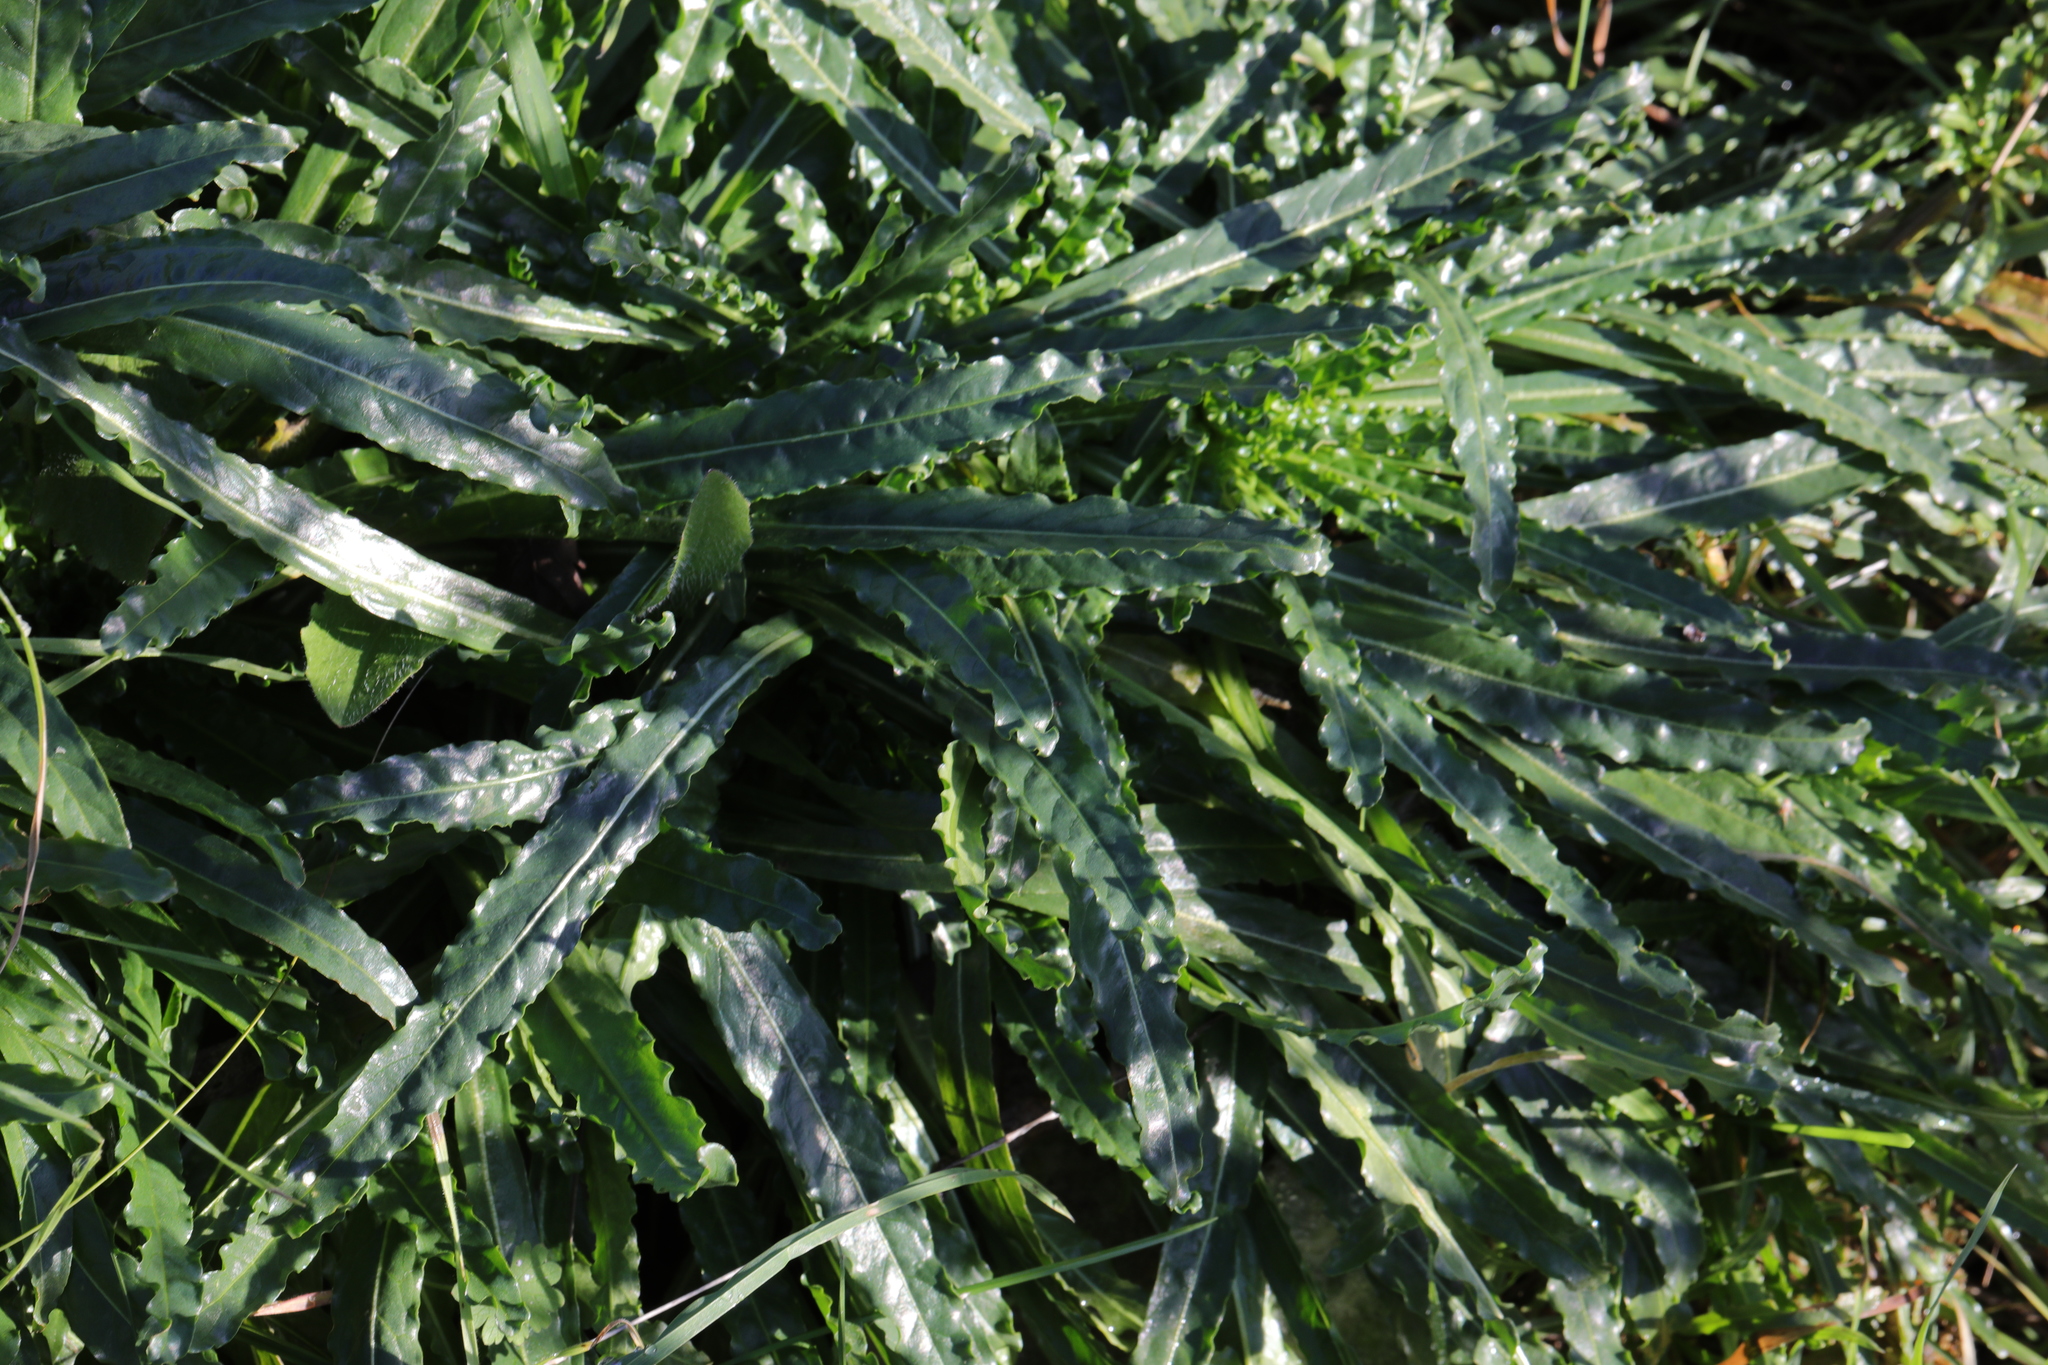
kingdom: Plantae
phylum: Tracheophyta
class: Magnoliopsida
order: Brassicales
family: Resedaceae
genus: Reseda
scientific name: Reseda luteola
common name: Weld
